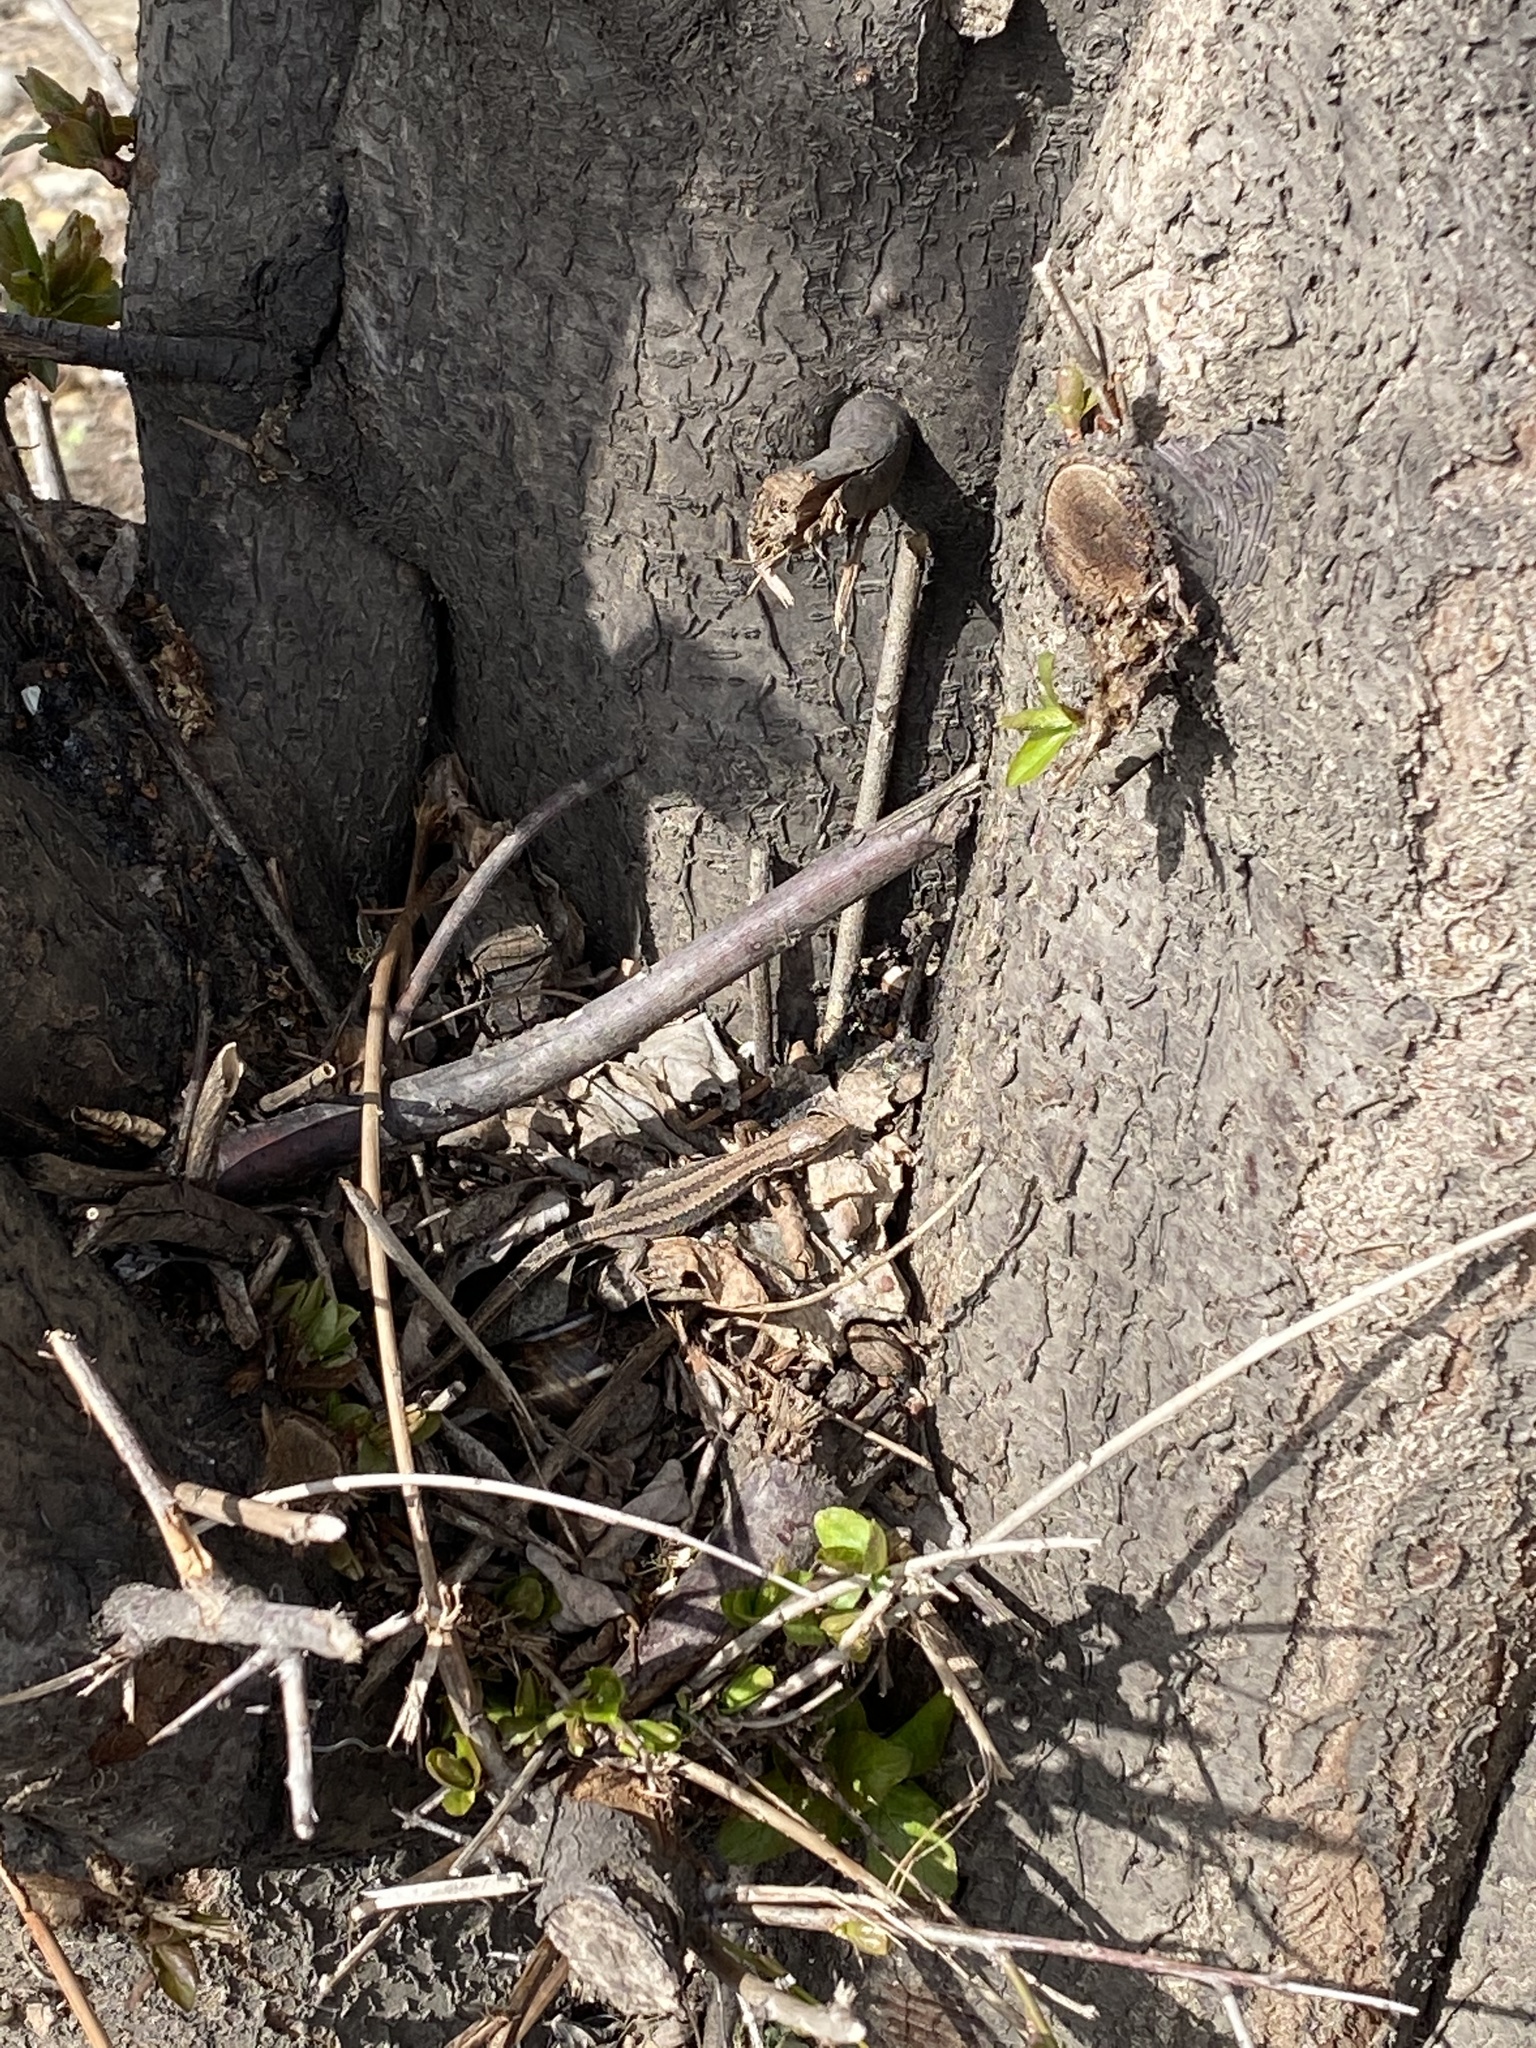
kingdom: Animalia
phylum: Chordata
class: Squamata
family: Lacertidae
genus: Darevskia
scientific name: Darevskia praticola
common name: Meadow lizard
